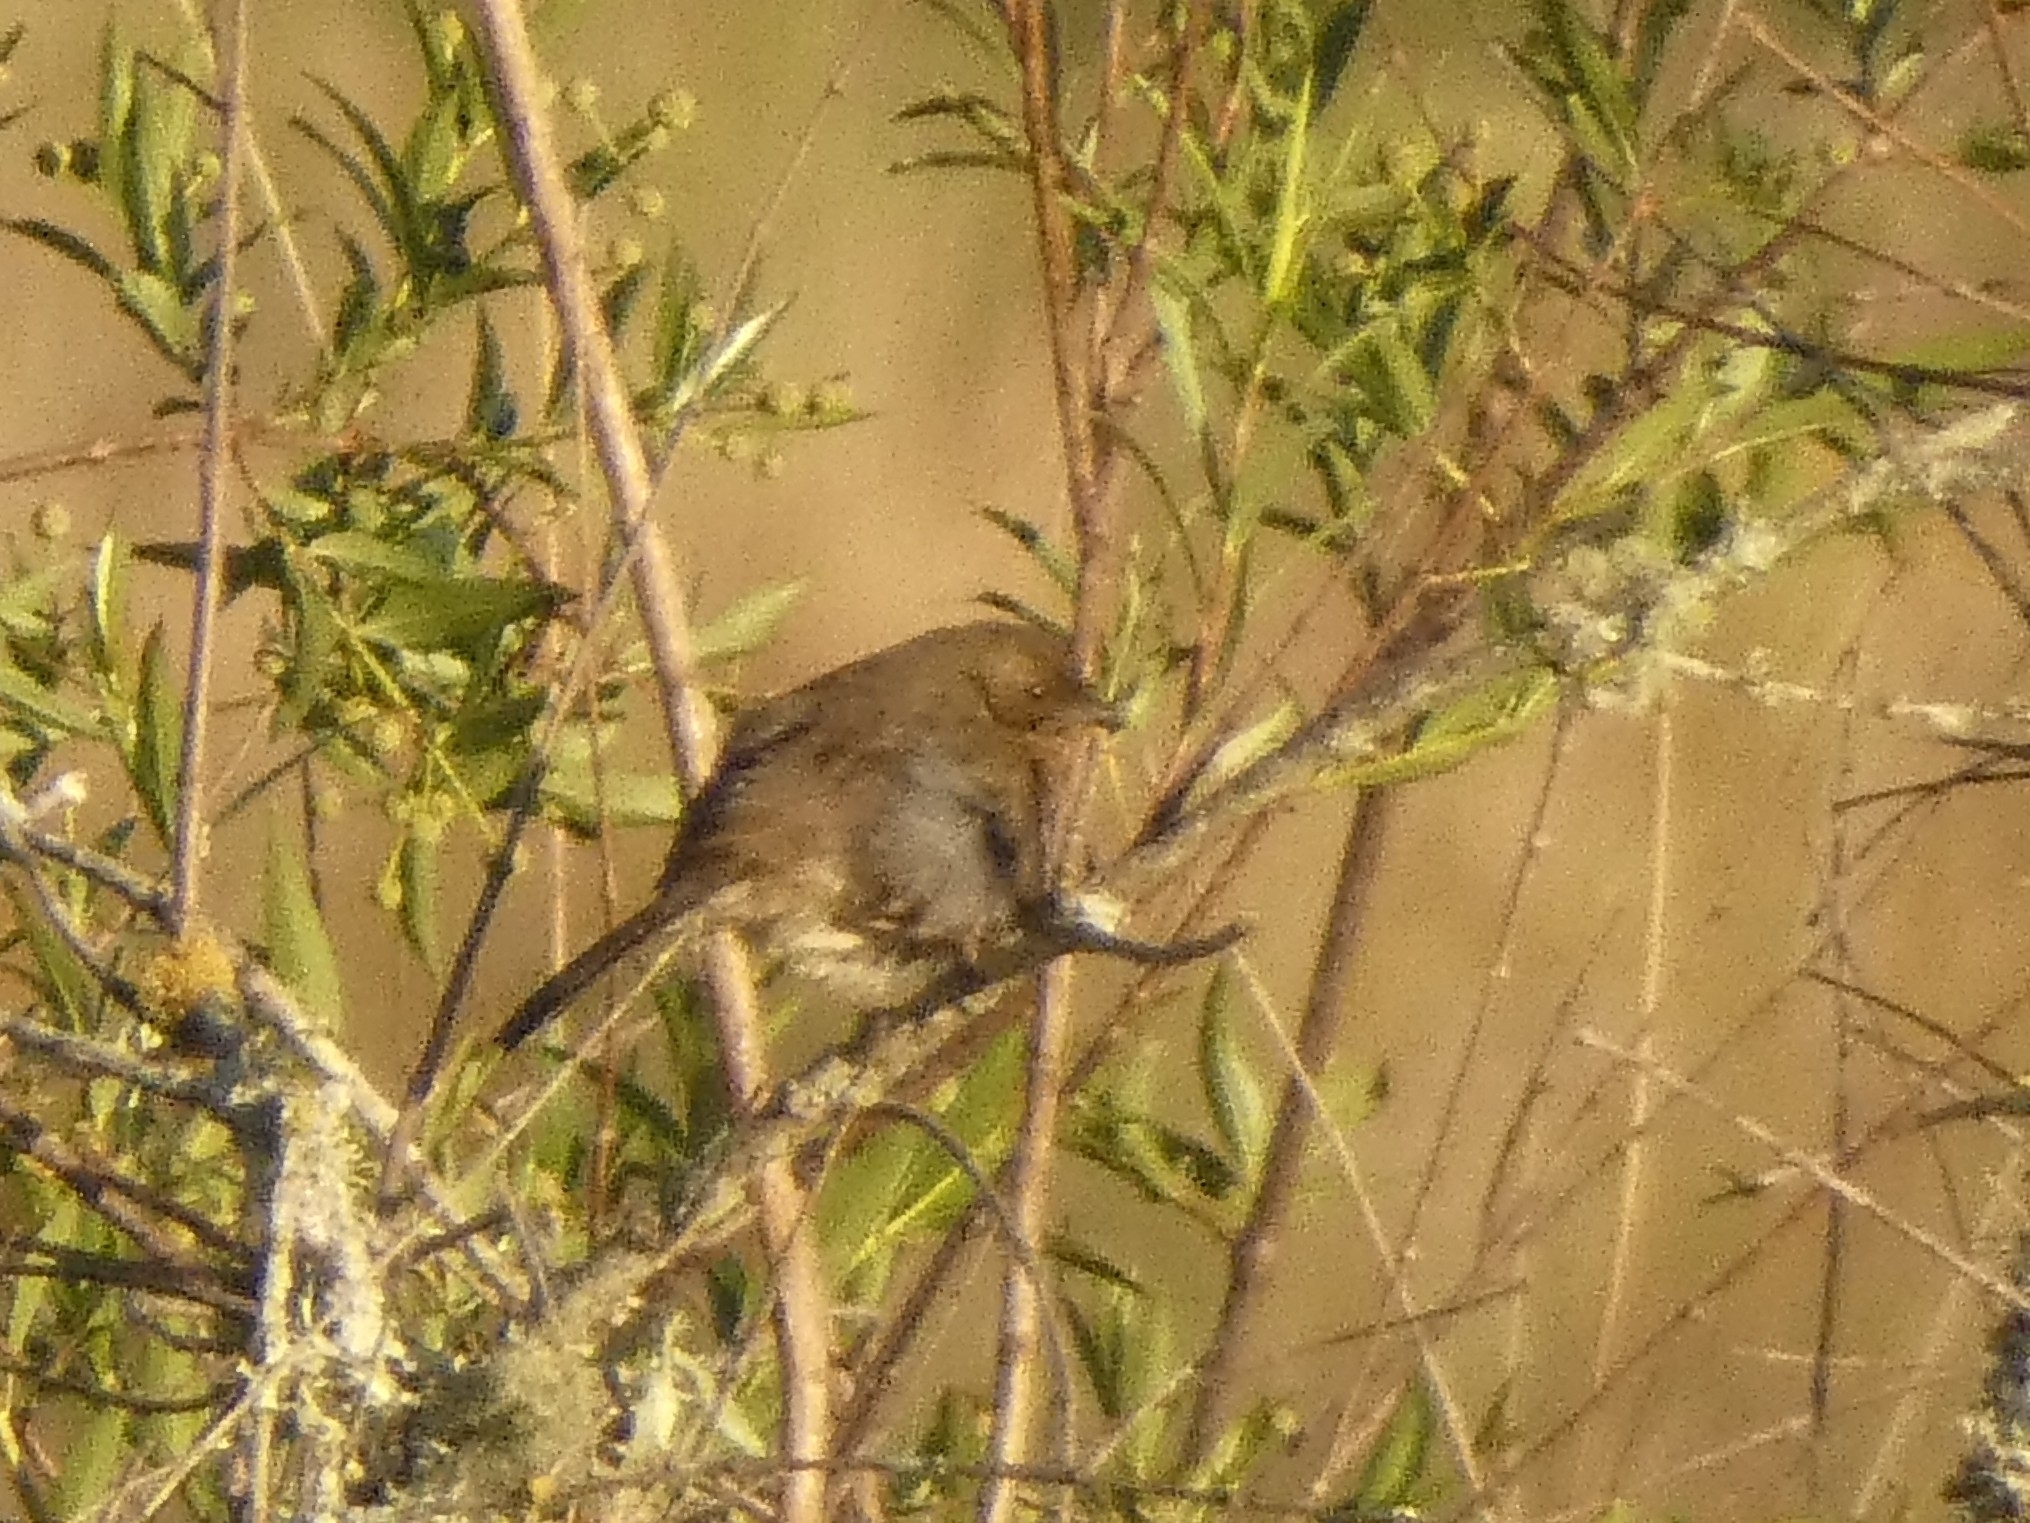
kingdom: Animalia
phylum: Chordata
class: Aves
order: Passeriformes
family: Thraupidae
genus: Poospiza
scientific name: Poospiza nigrorufa
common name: Black-and-rufous warbling finch
